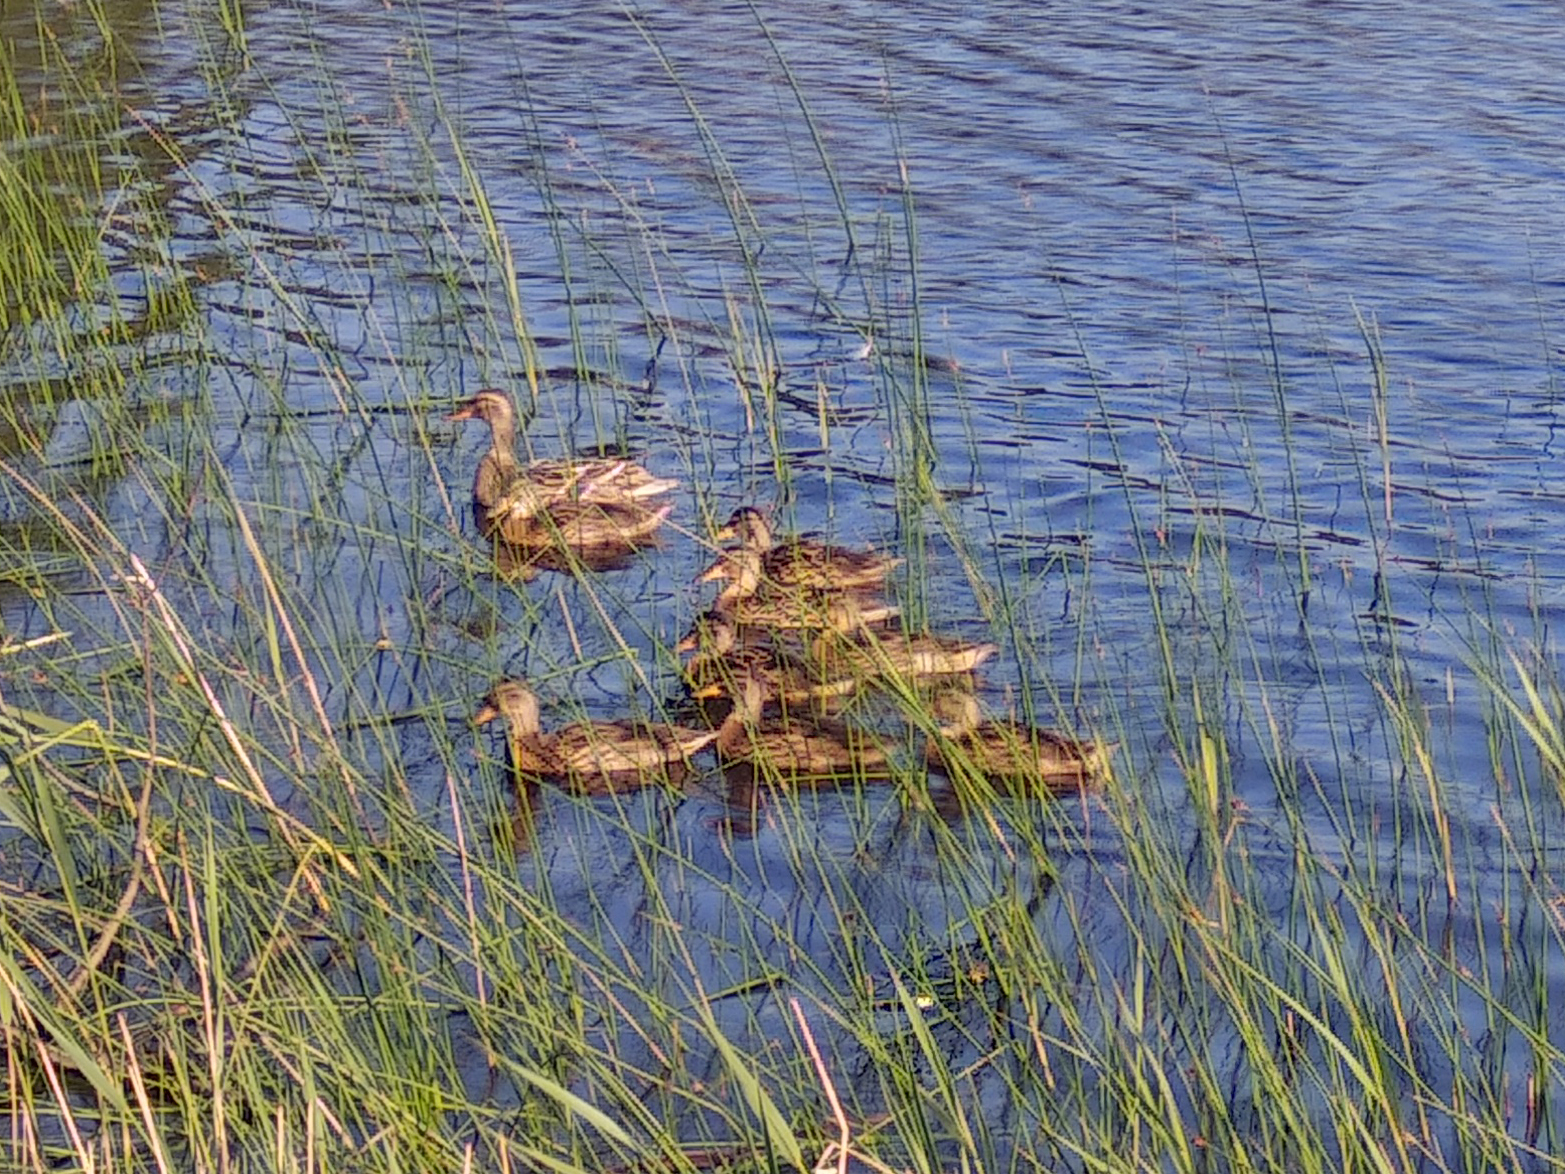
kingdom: Animalia
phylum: Chordata
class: Aves
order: Anseriformes
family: Anatidae
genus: Anas
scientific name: Anas platyrhynchos
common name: Mallard
